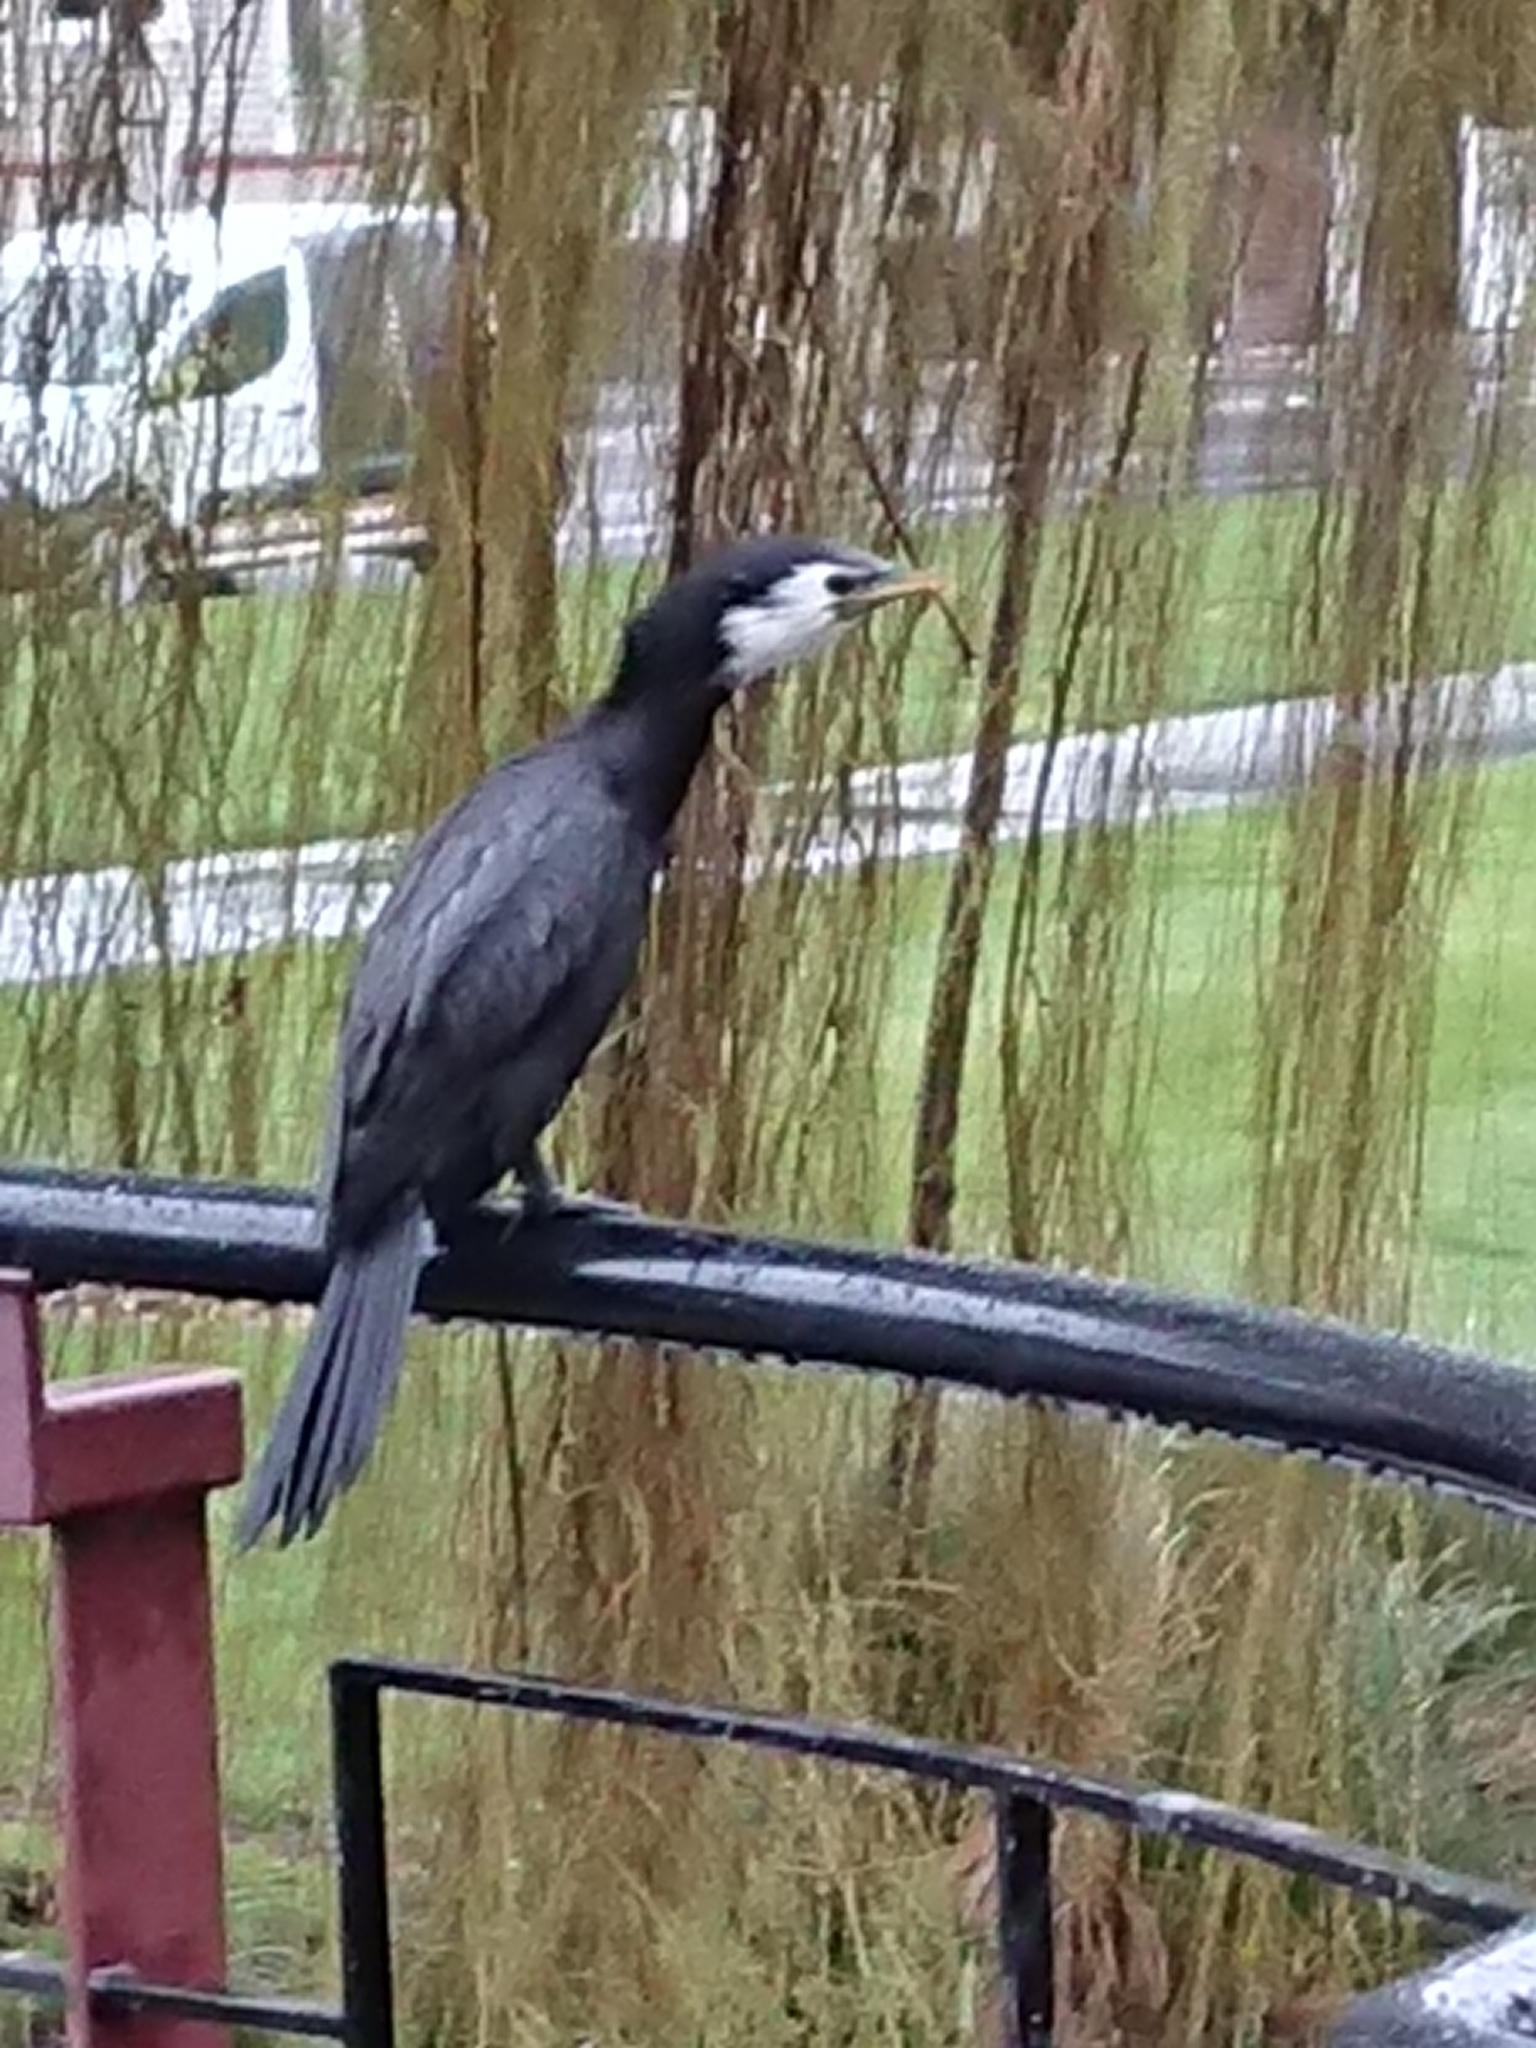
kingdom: Animalia
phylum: Chordata
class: Aves
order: Suliformes
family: Phalacrocoracidae
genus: Microcarbo
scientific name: Microcarbo melanoleucos
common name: Little pied cormorant
